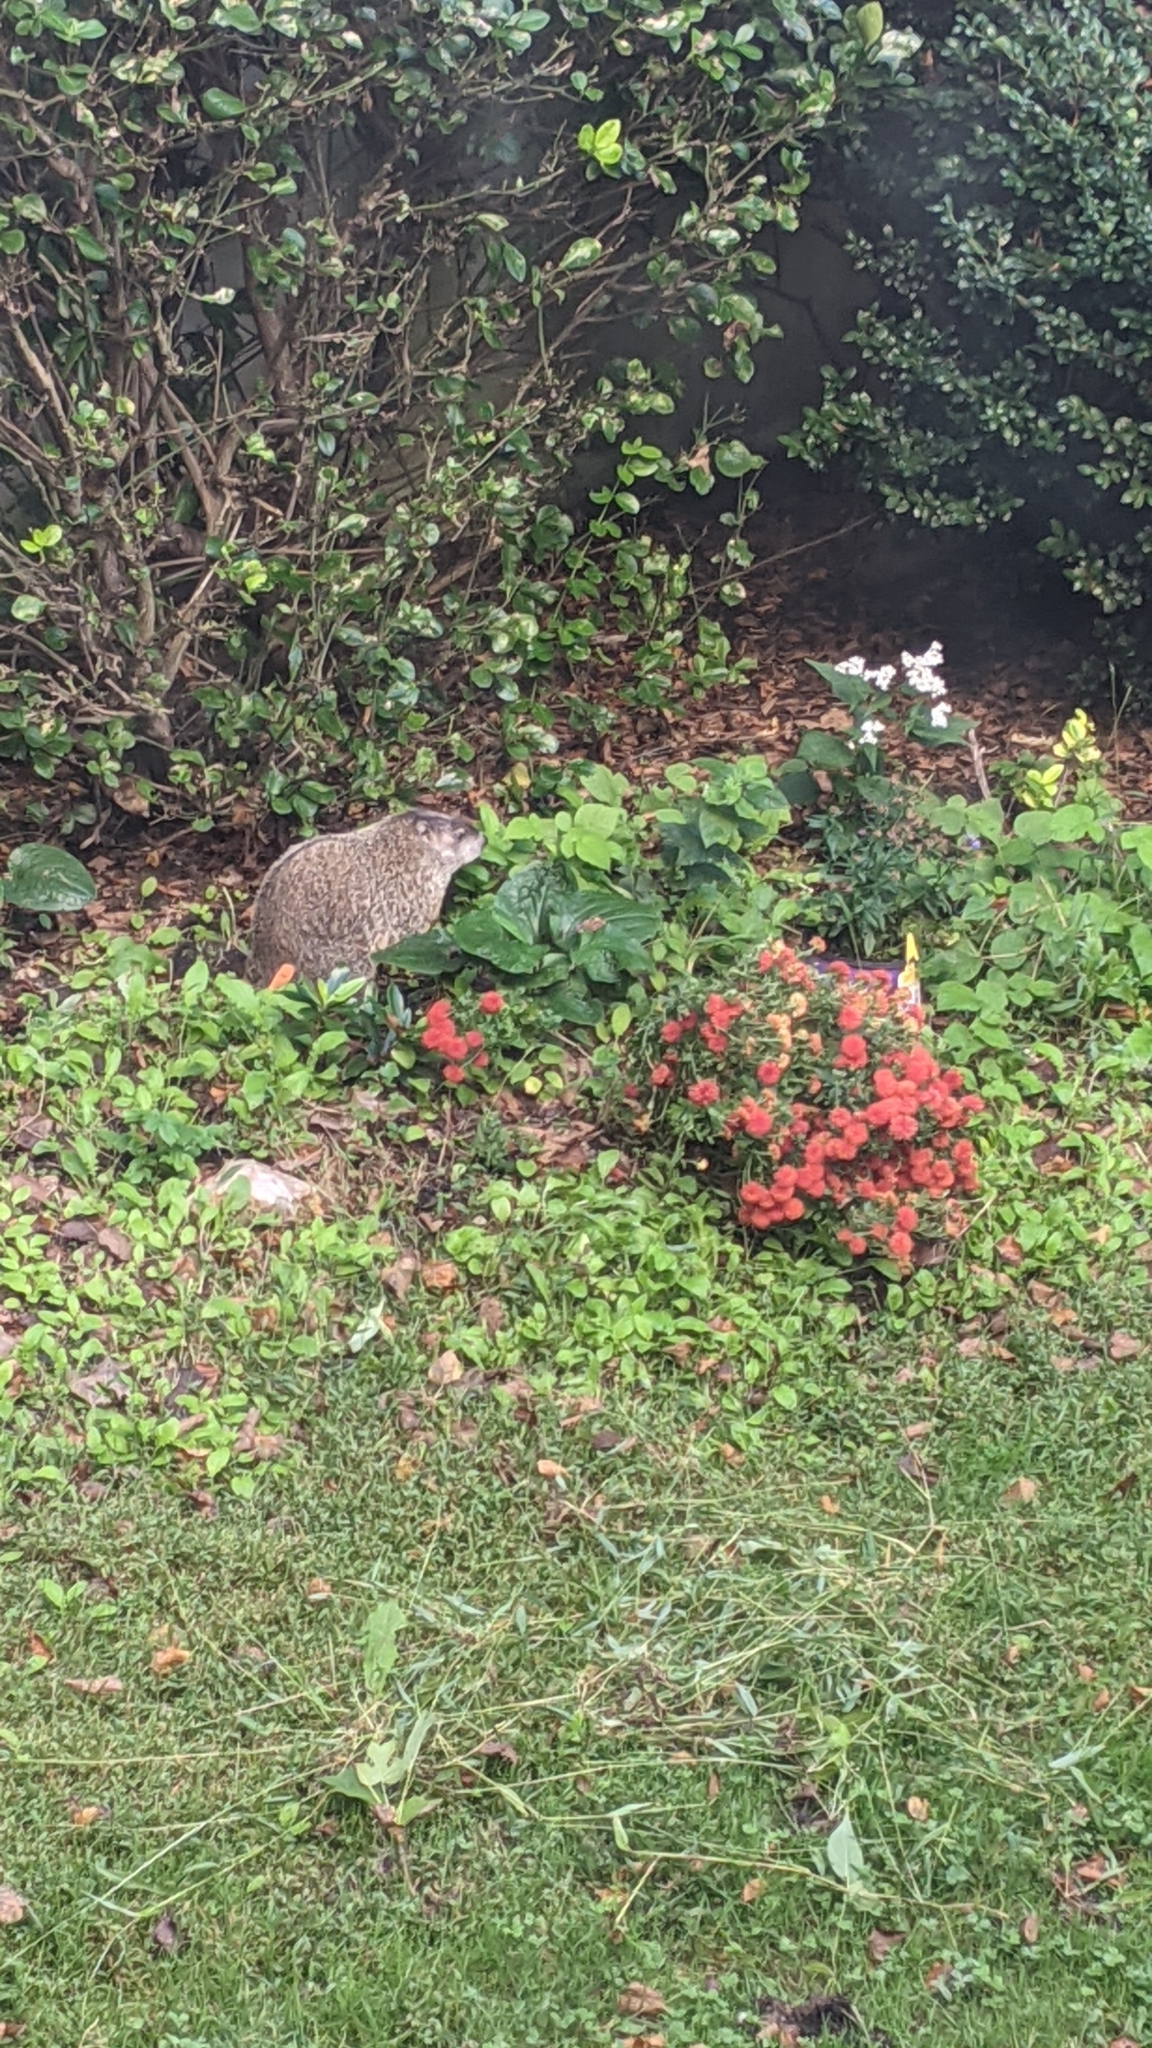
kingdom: Animalia
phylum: Chordata
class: Mammalia
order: Rodentia
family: Sciuridae
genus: Marmota
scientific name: Marmota monax
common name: Groundhog
